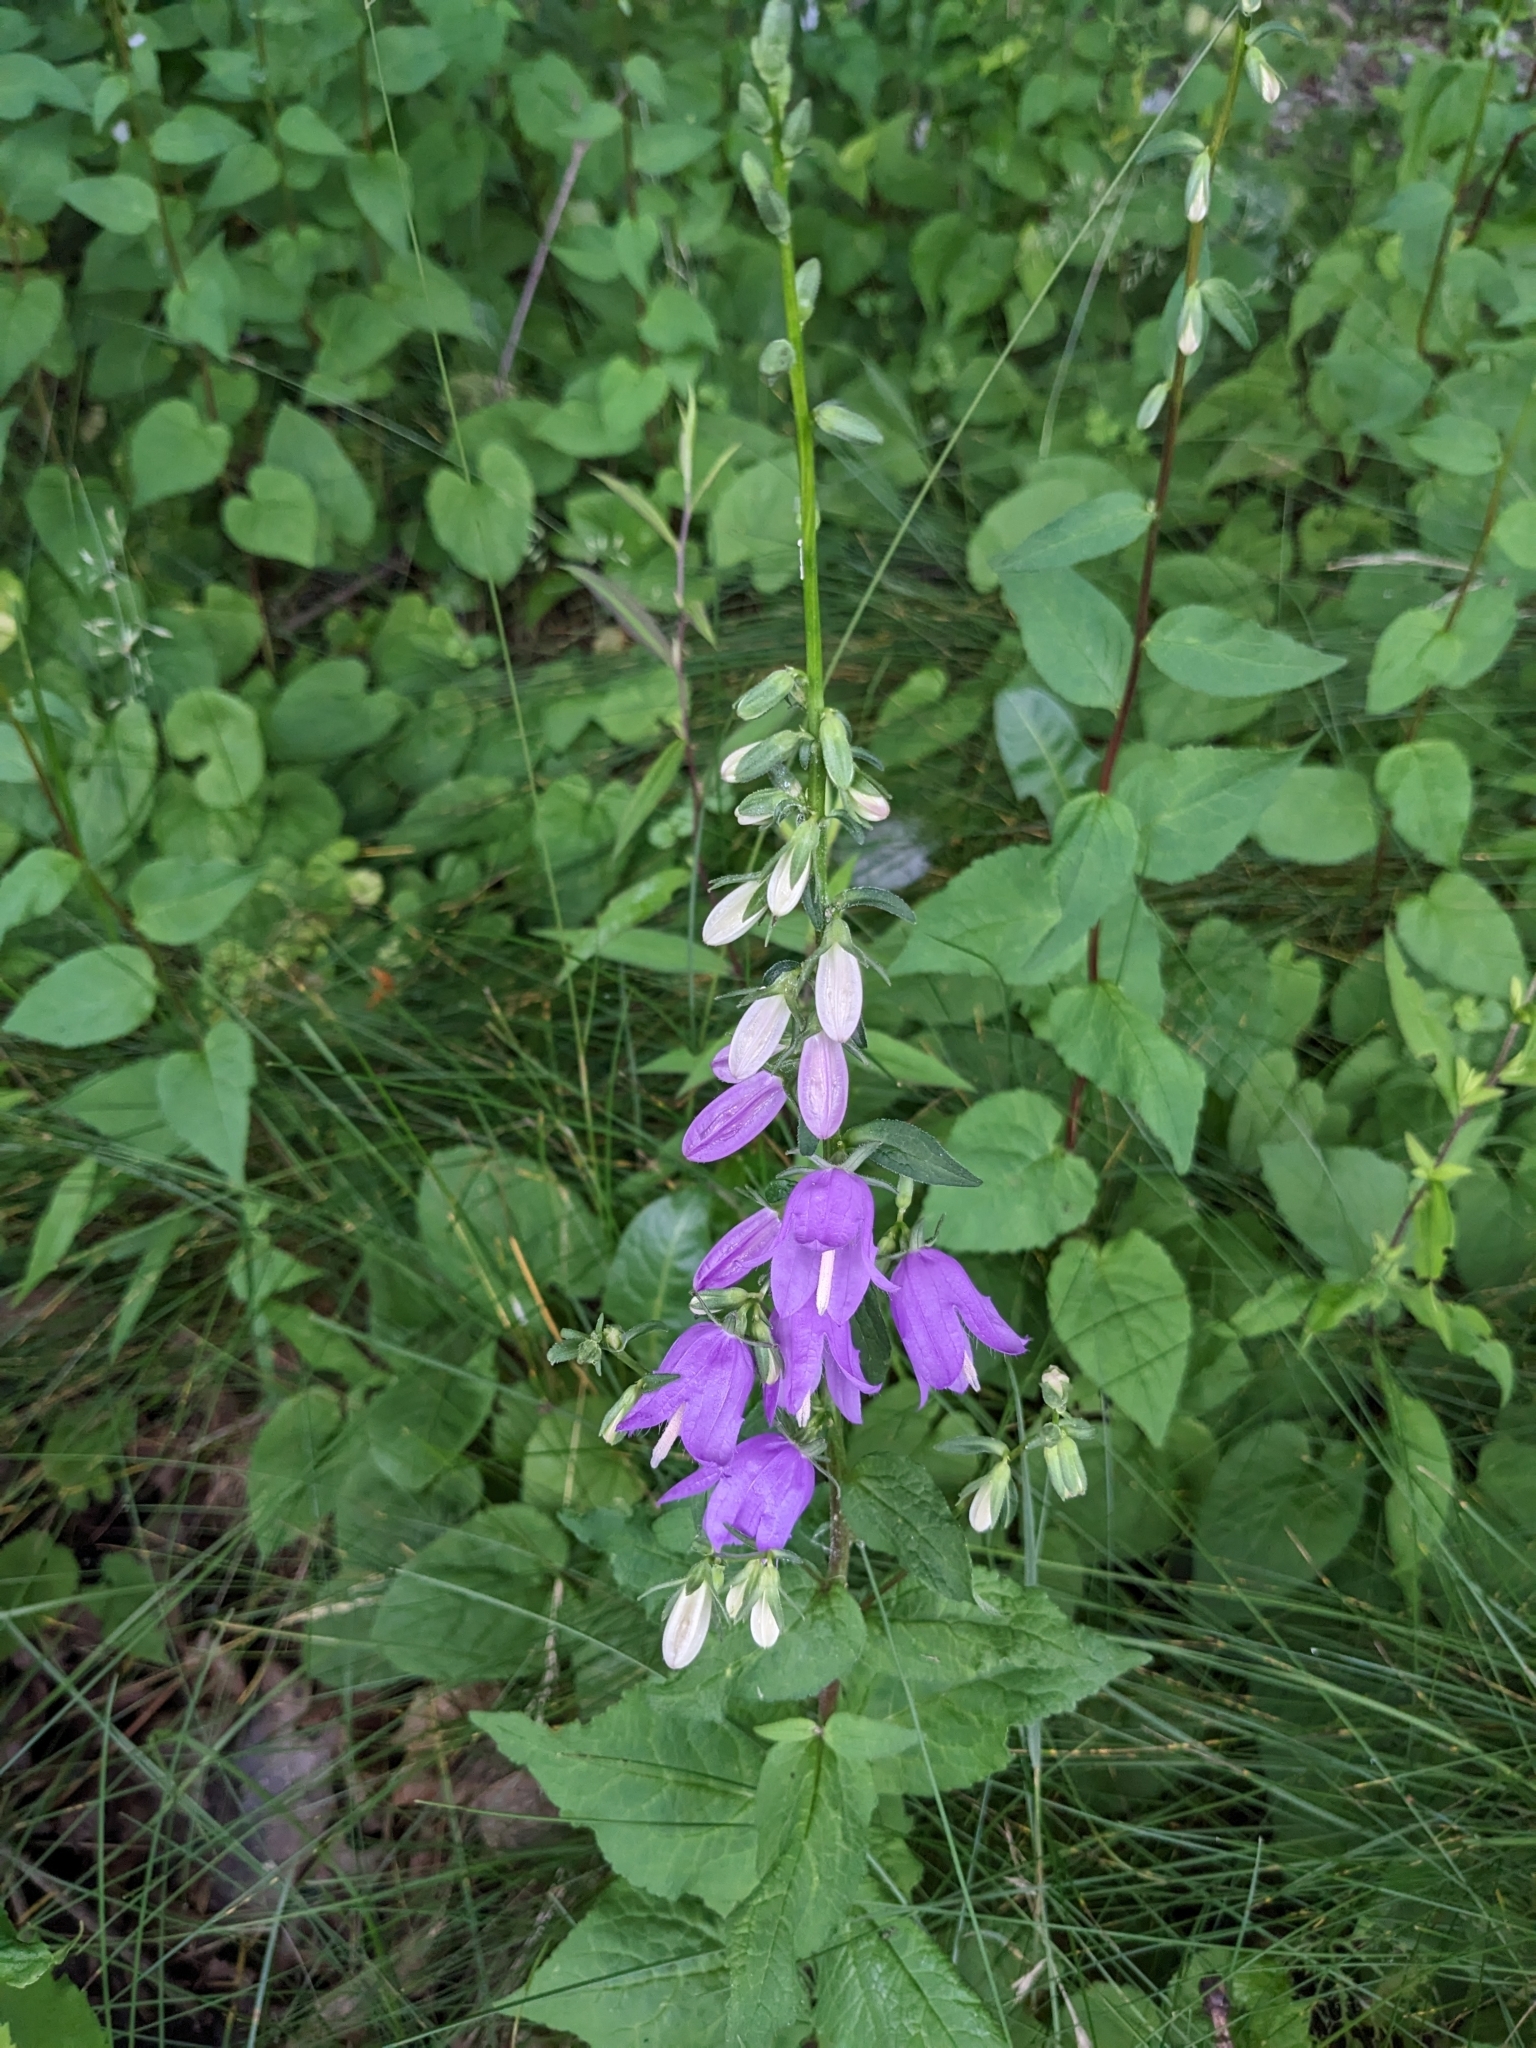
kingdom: Plantae
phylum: Tracheophyta
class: Magnoliopsida
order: Asterales
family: Campanulaceae
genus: Campanula
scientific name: Campanula rapunculoides
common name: Creeping bellflower
